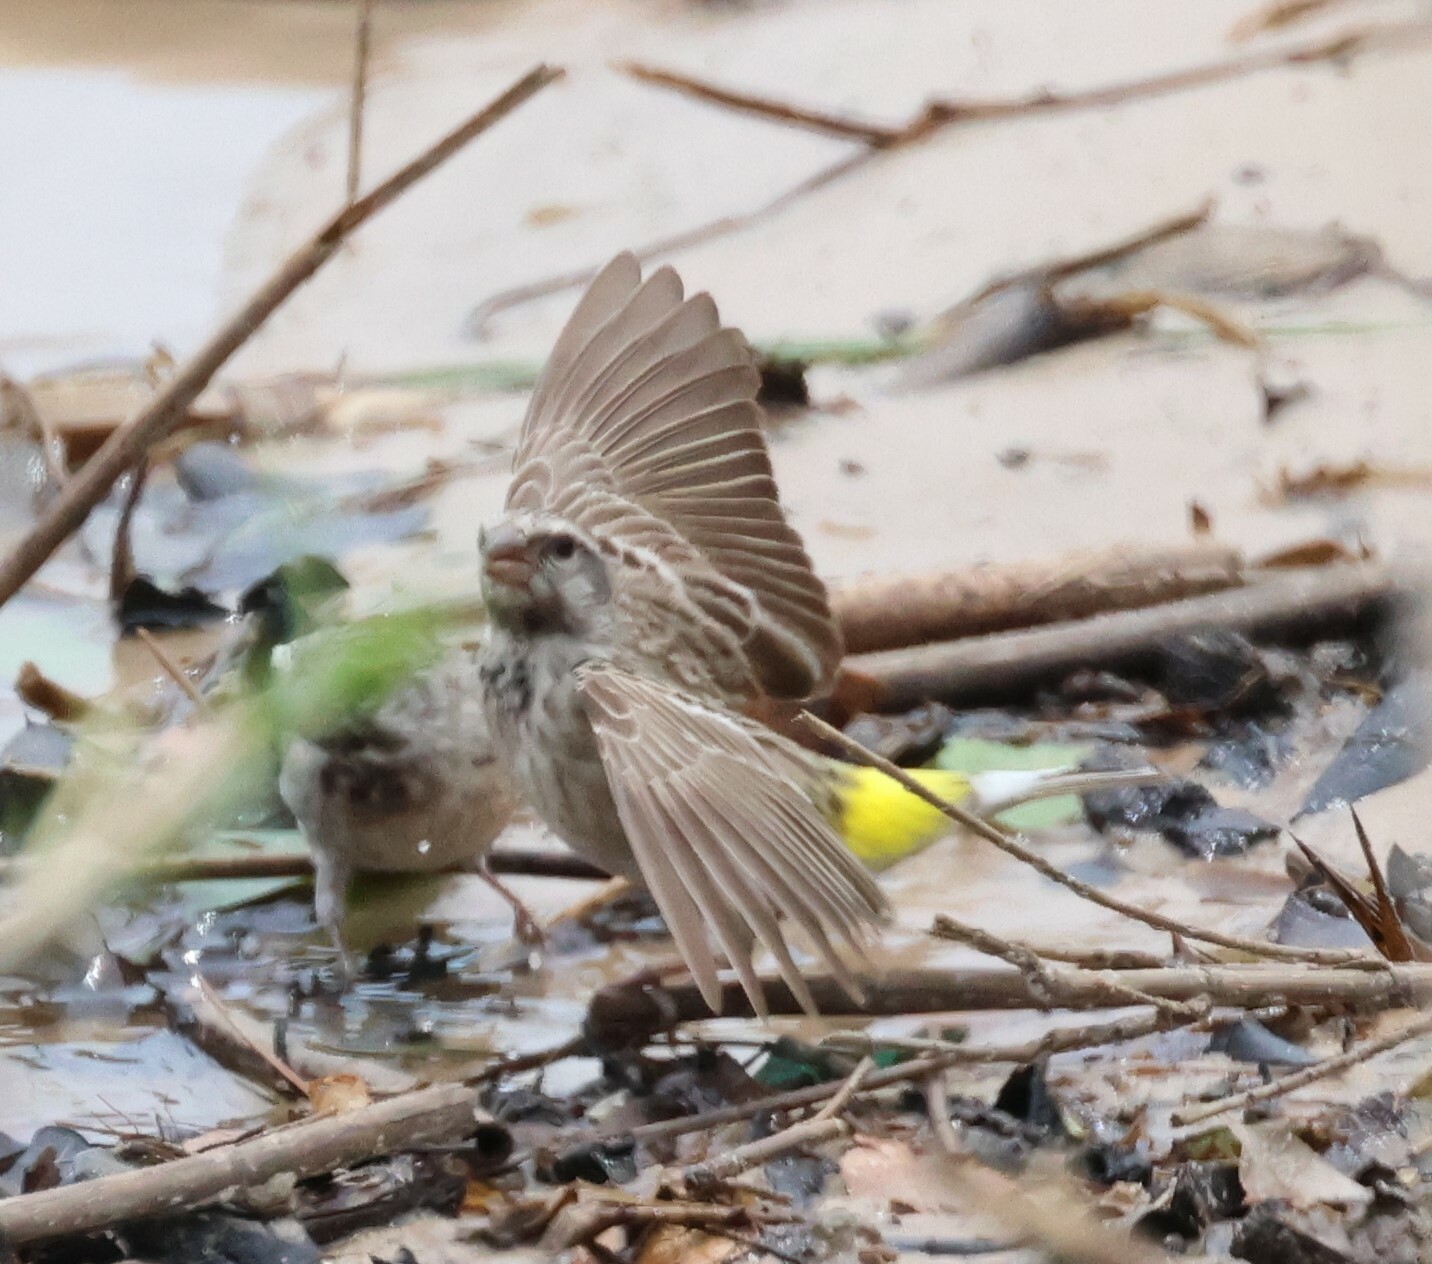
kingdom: Animalia
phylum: Chordata
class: Aves
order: Passeriformes
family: Fringillidae
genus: Crithagra
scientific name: Crithagra atrogularis
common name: Black-throated canary
